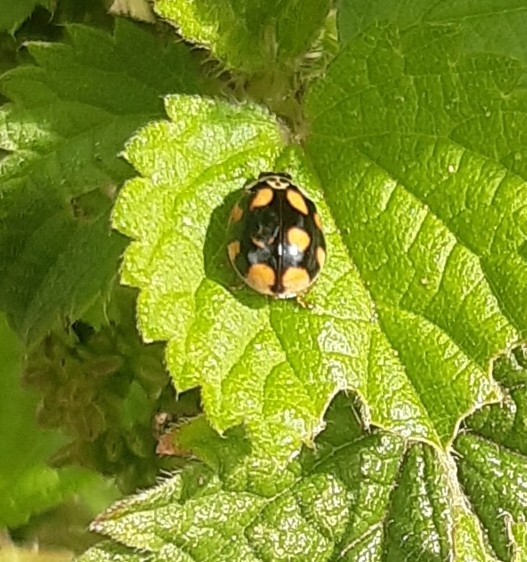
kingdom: Animalia
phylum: Arthropoda
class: Insecta
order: Coleoptera
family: Coccinellidae
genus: Adalia
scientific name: Adalia decempunctata
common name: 10-spot ladybird
